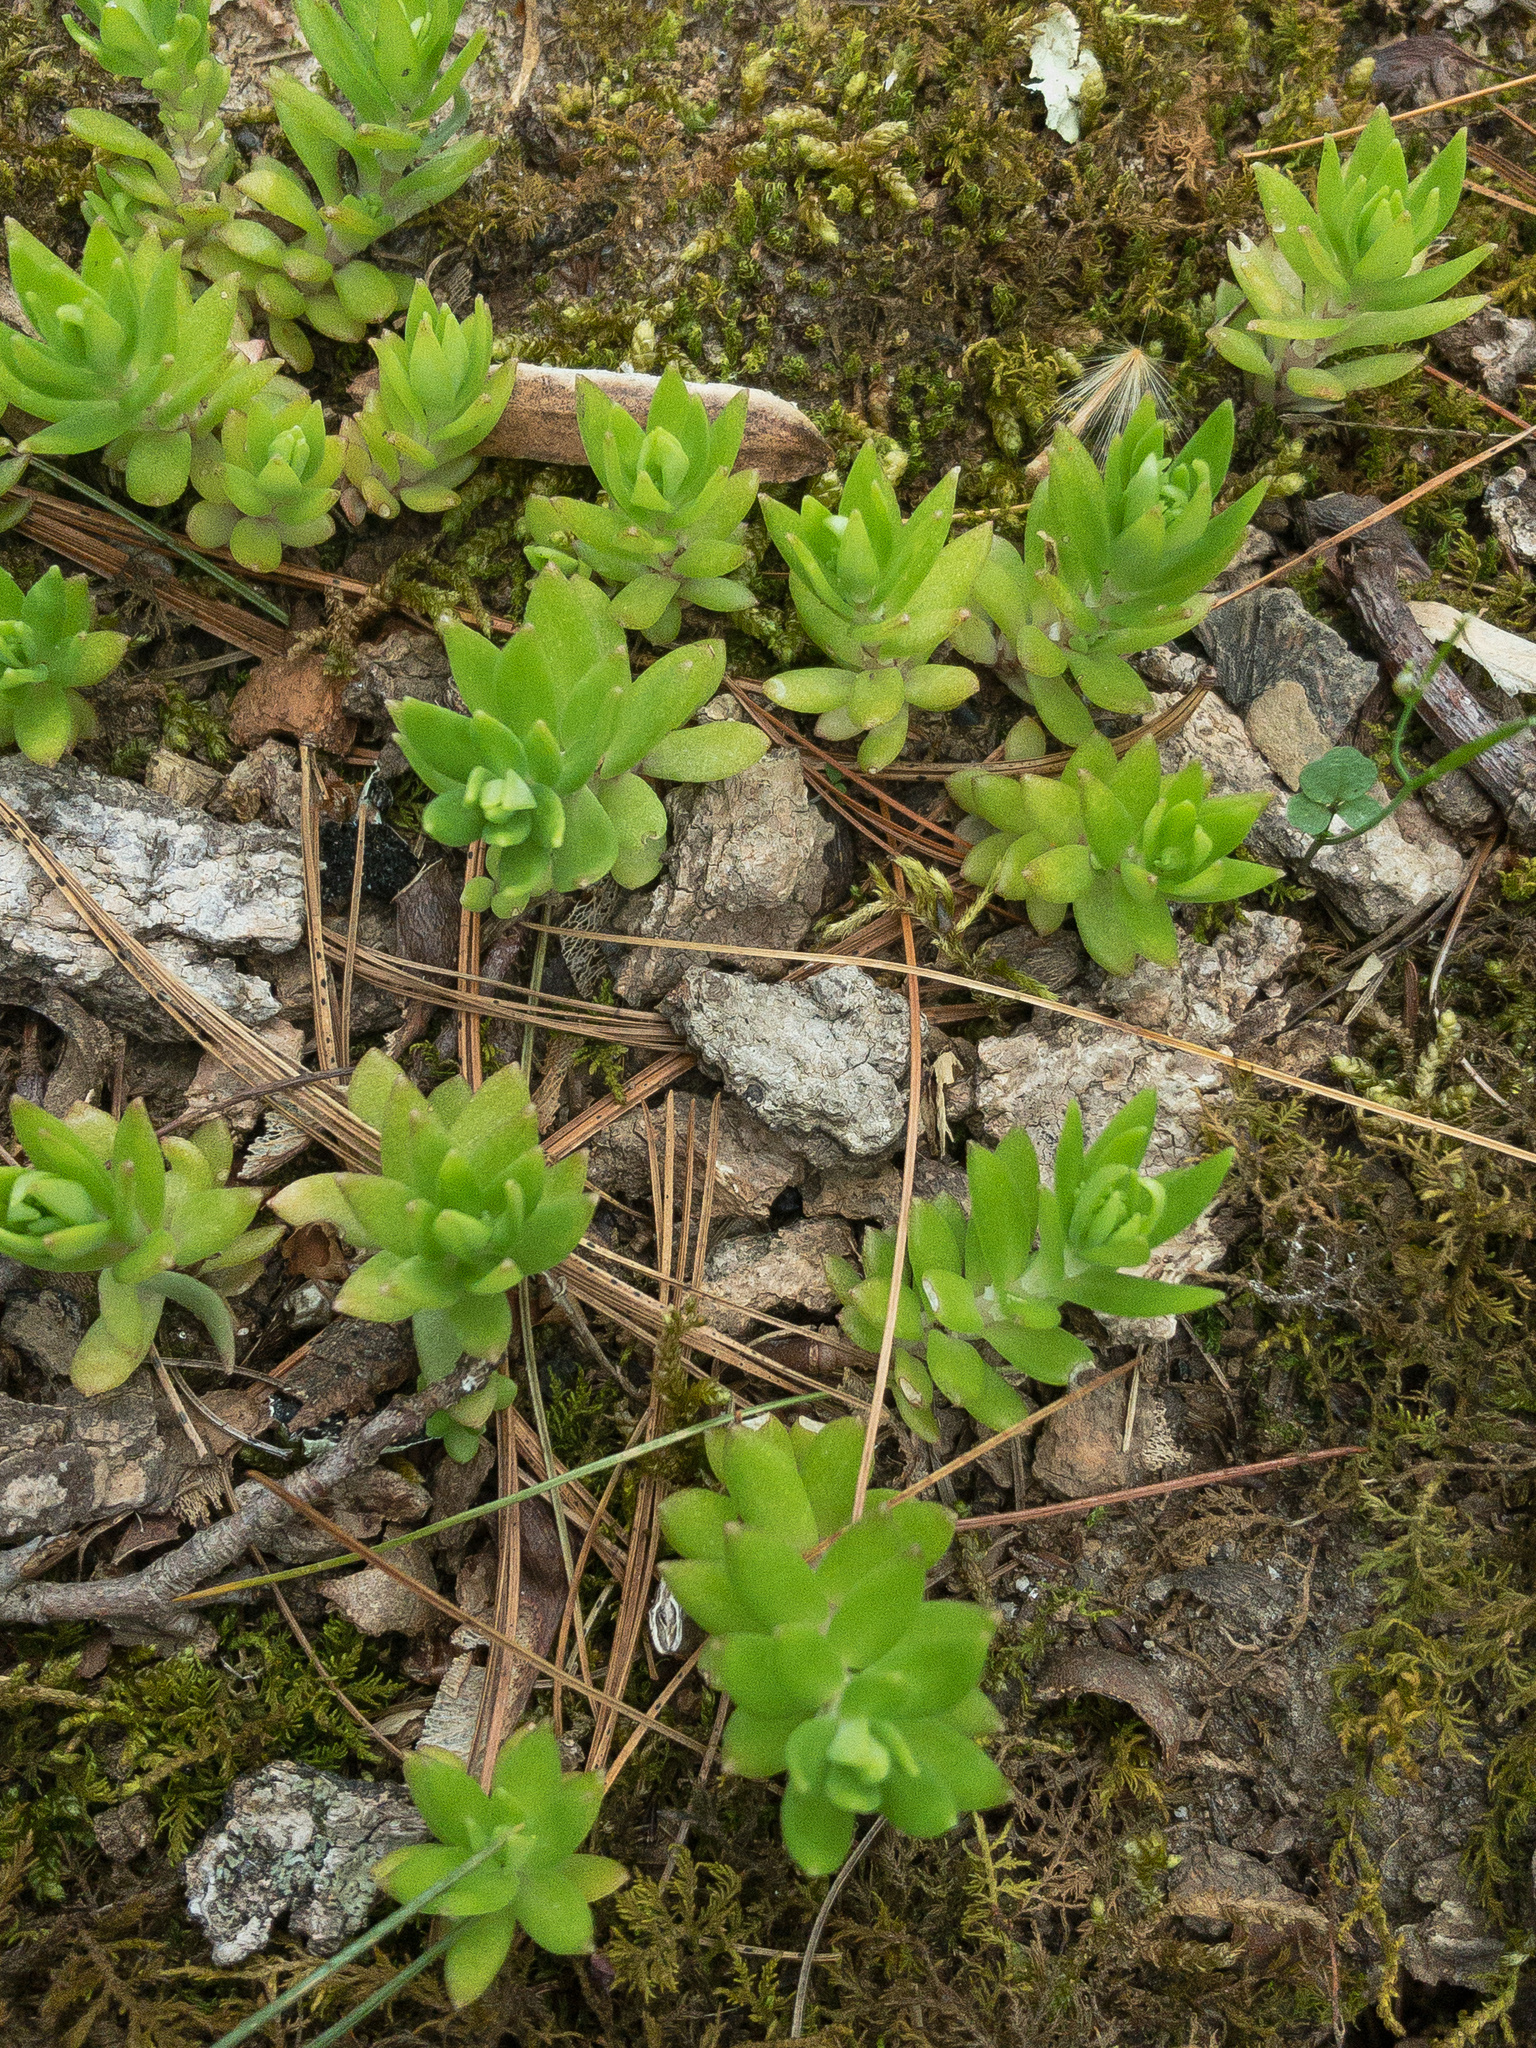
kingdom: Plantae
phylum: Tracheophyta
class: Magnoliopsida
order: Saxifragales
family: Crassulaceae
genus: Sedum
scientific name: Sedum sarmentosum
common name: Stringy stonecrop
